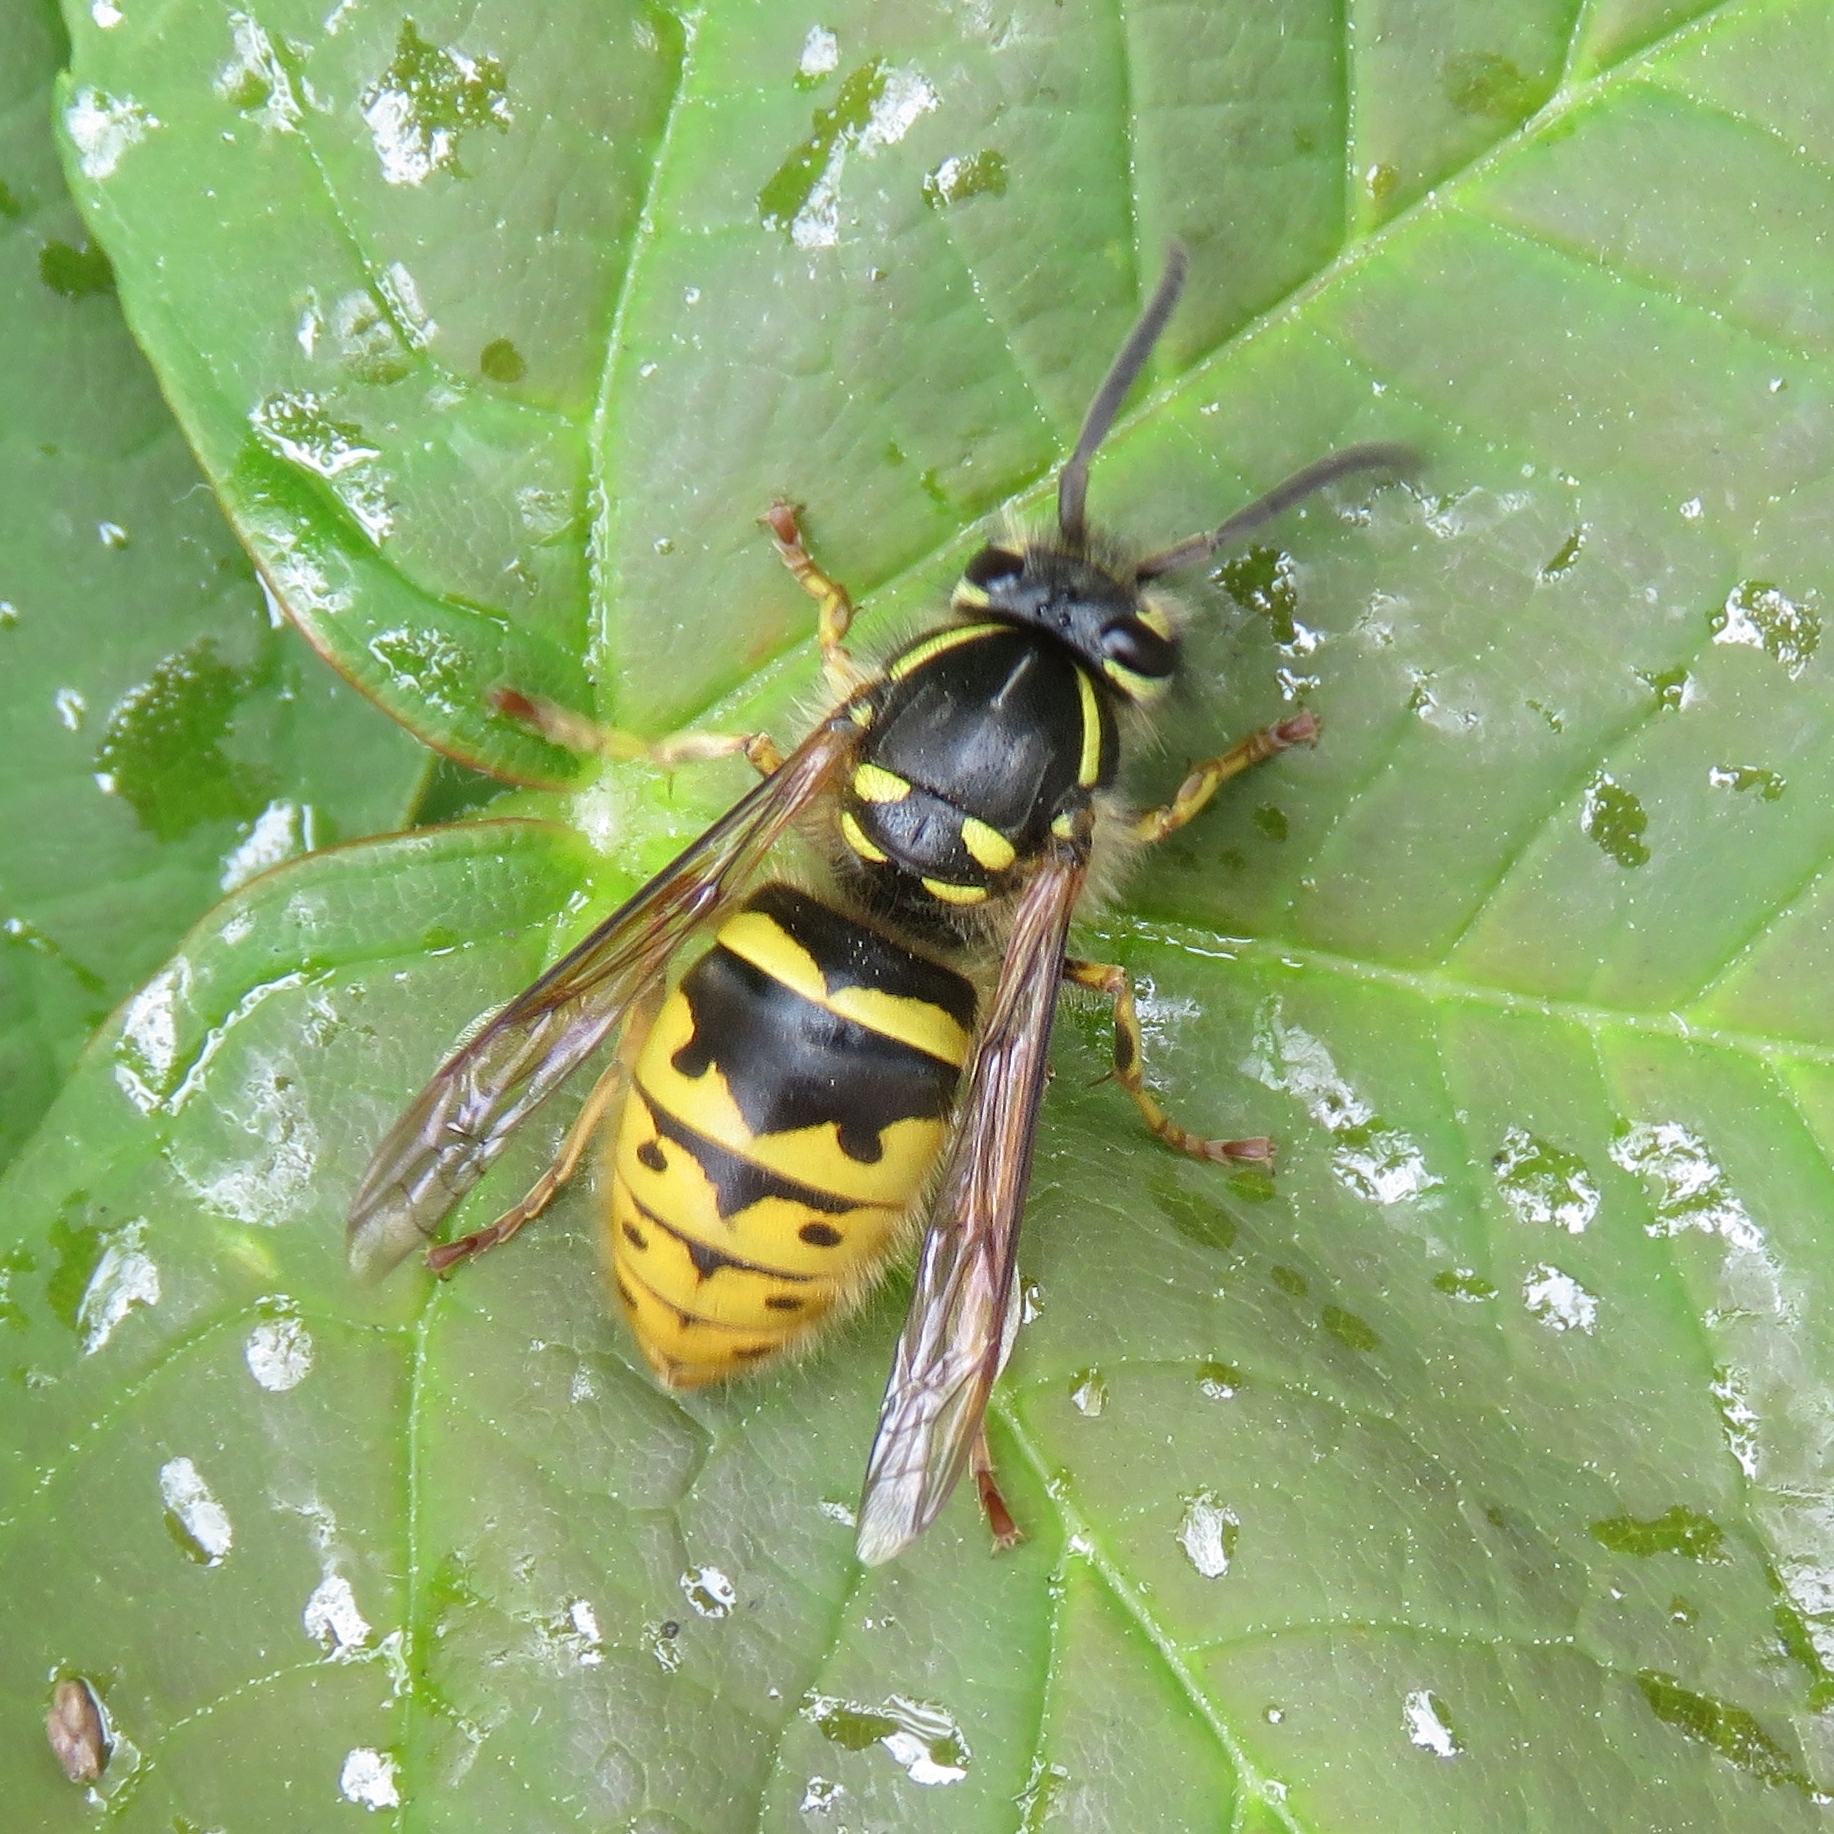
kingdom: Animalia
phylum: Arthropoda
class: Insecta
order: Hymenoptera
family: Vespidae
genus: Vespula
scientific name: Vespula vulgaris
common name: Common wasp
